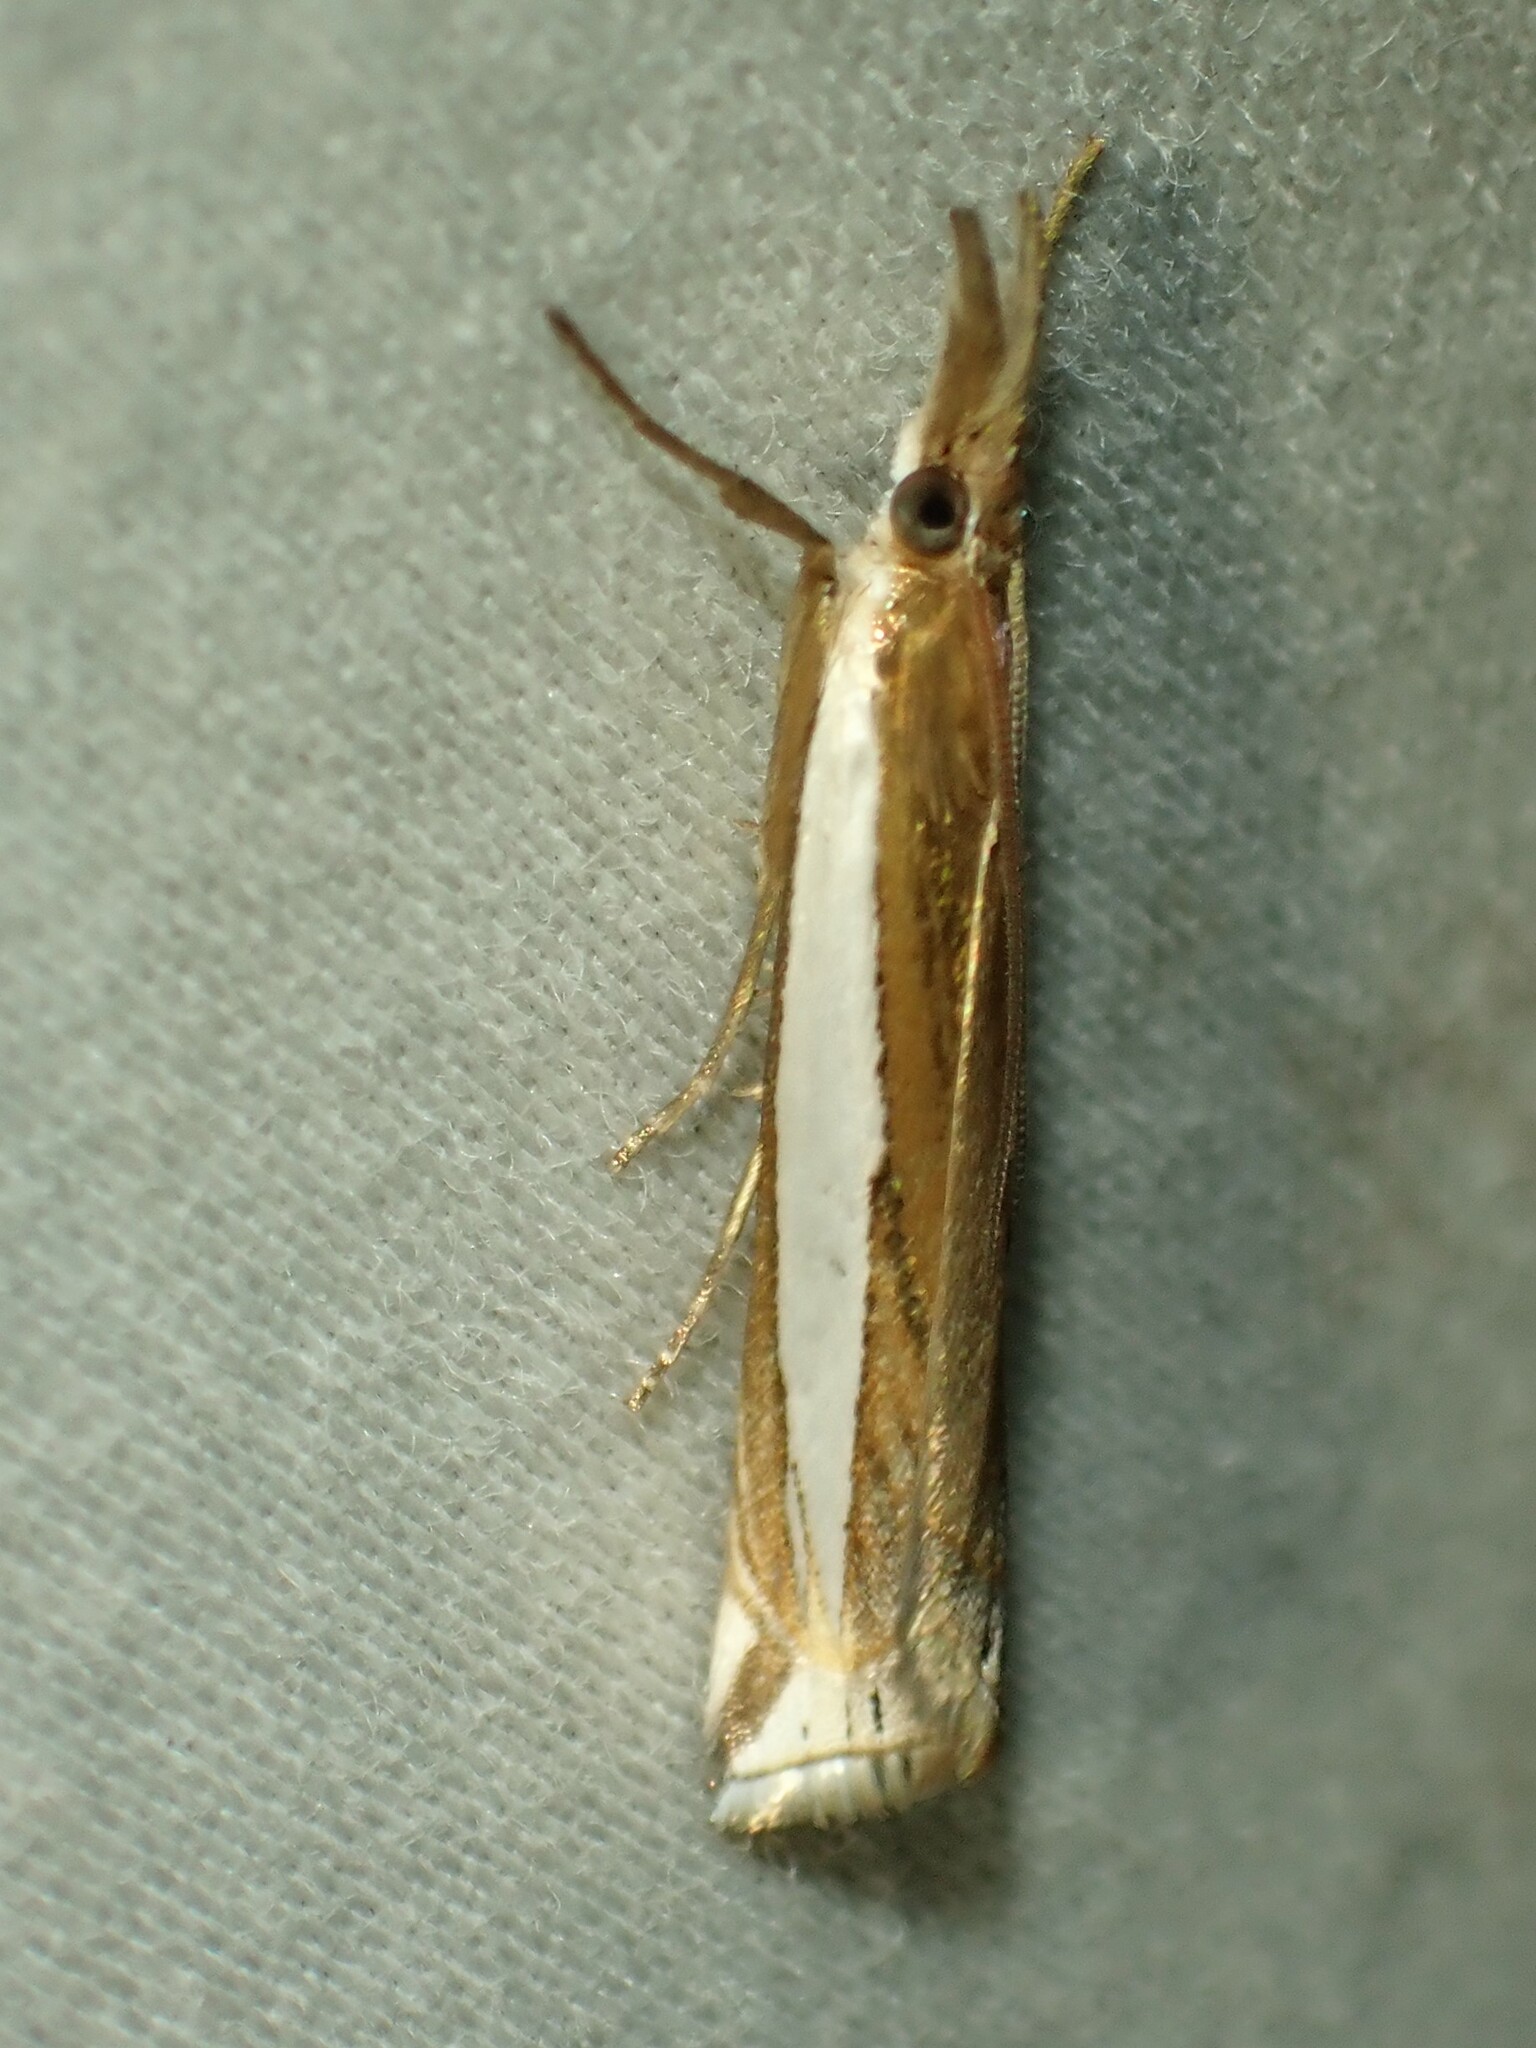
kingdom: Animalia
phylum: Arthropoda
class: Insecta
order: Lepidoptera
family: Crambidae
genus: Crambus
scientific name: Crambus leachellus
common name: Leach's grass-veneer
